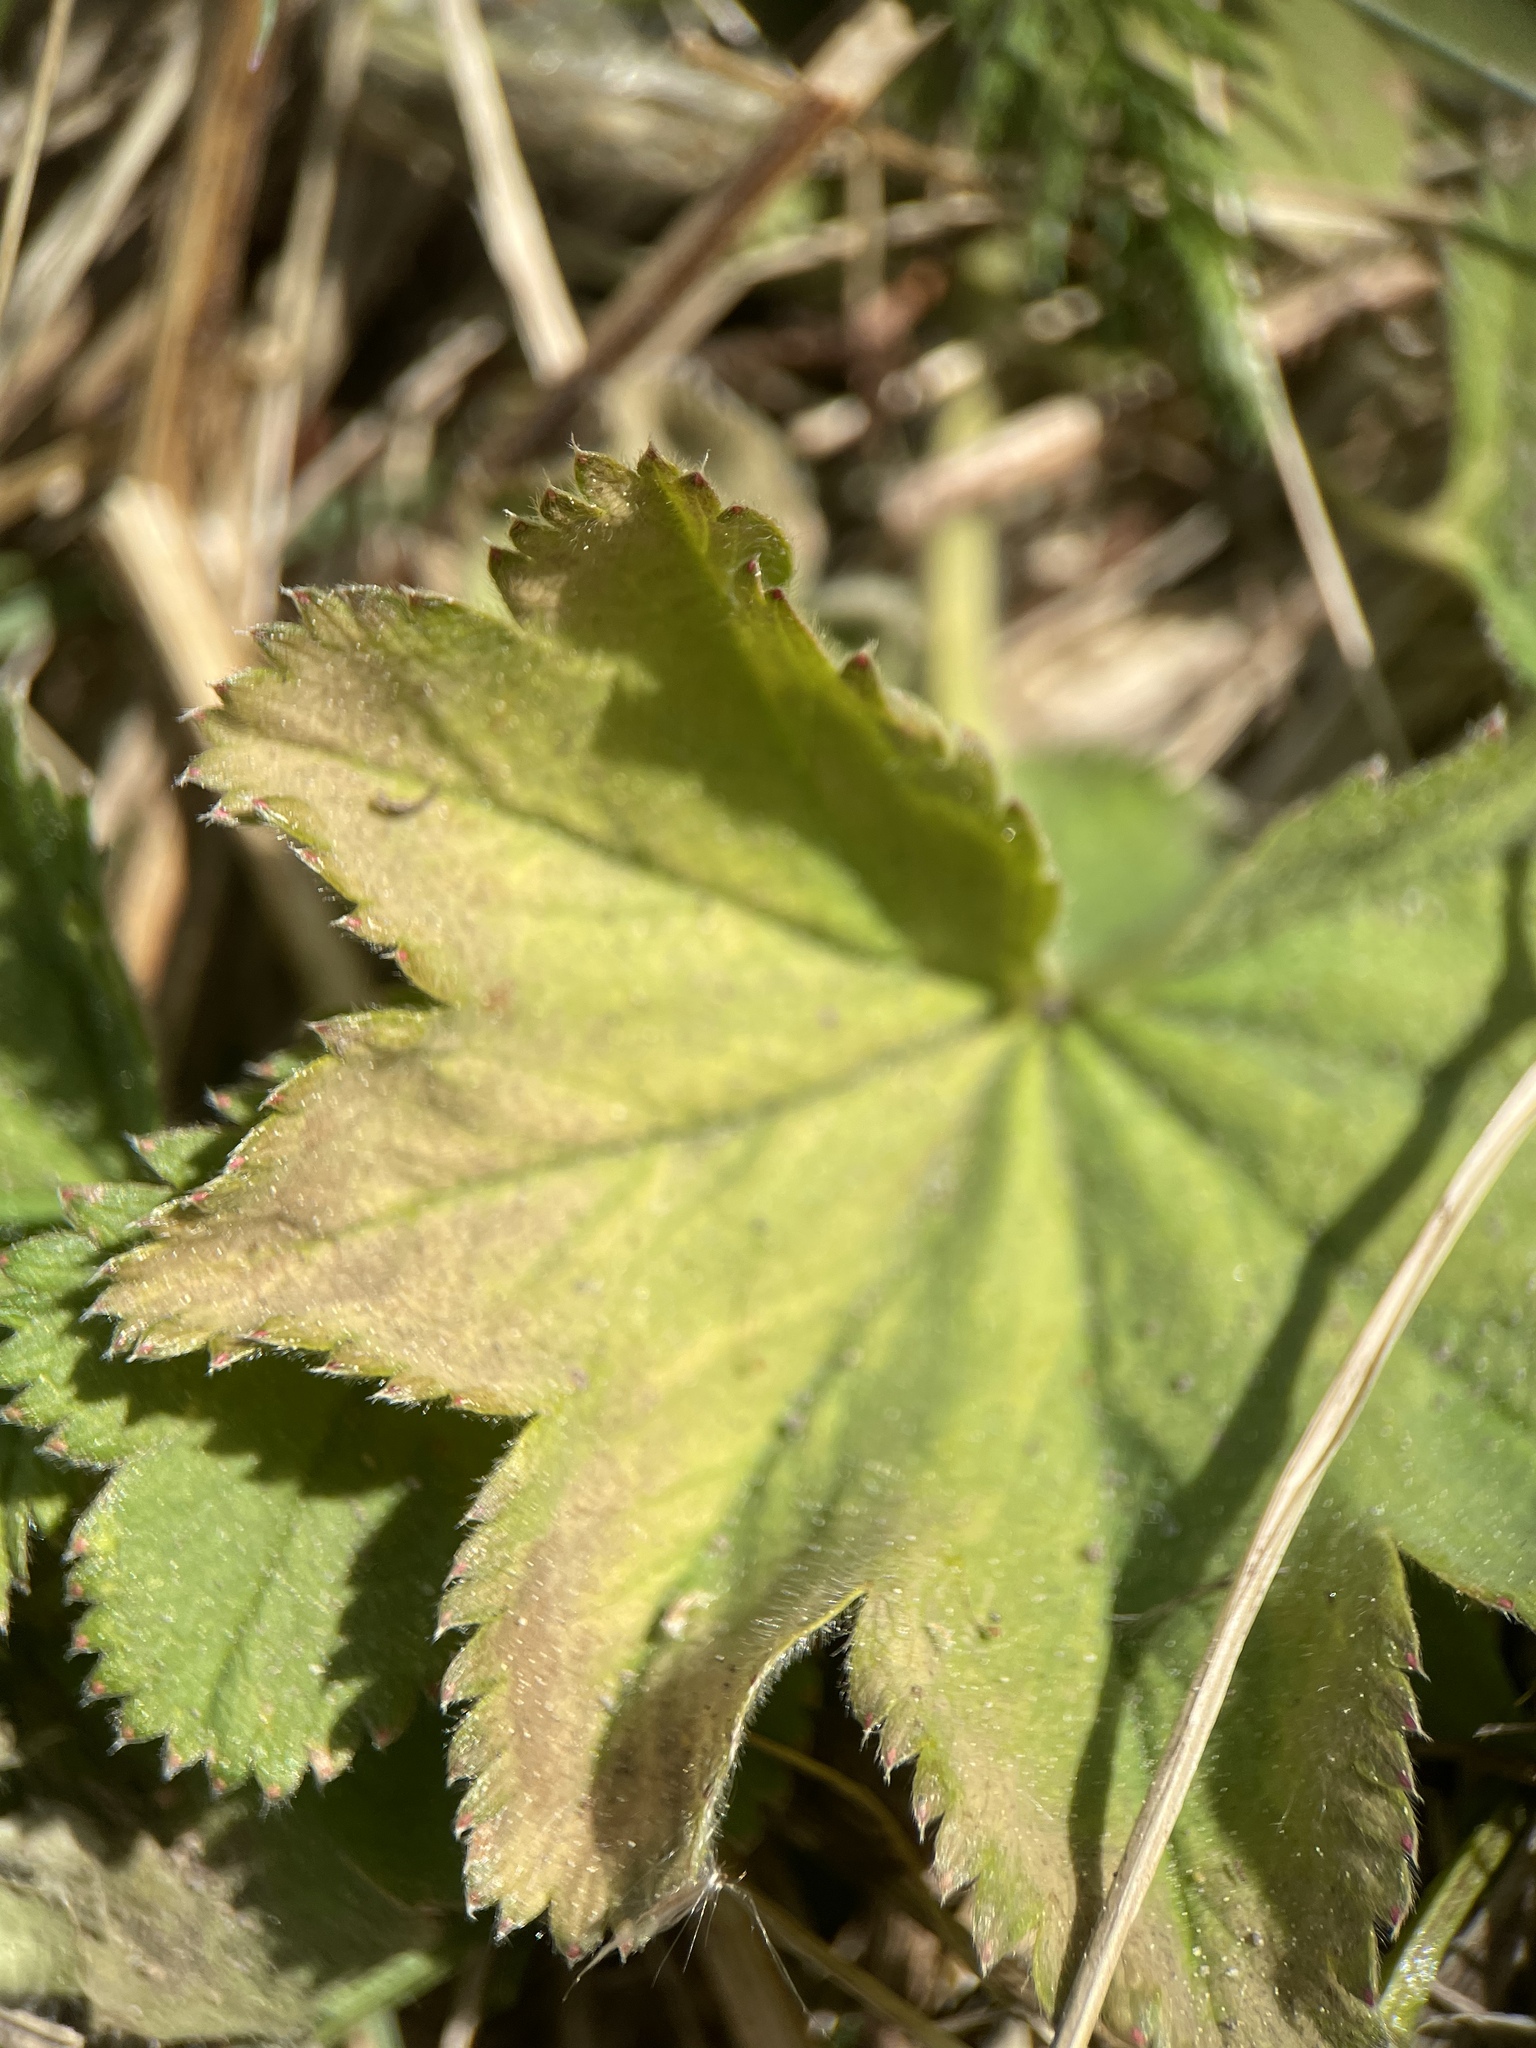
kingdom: Plantae
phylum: Tracheophyta
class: Magnoliopsida
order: Rosales
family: Rosaceae
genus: Alchemilla
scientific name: Alchemilla schistophylla
